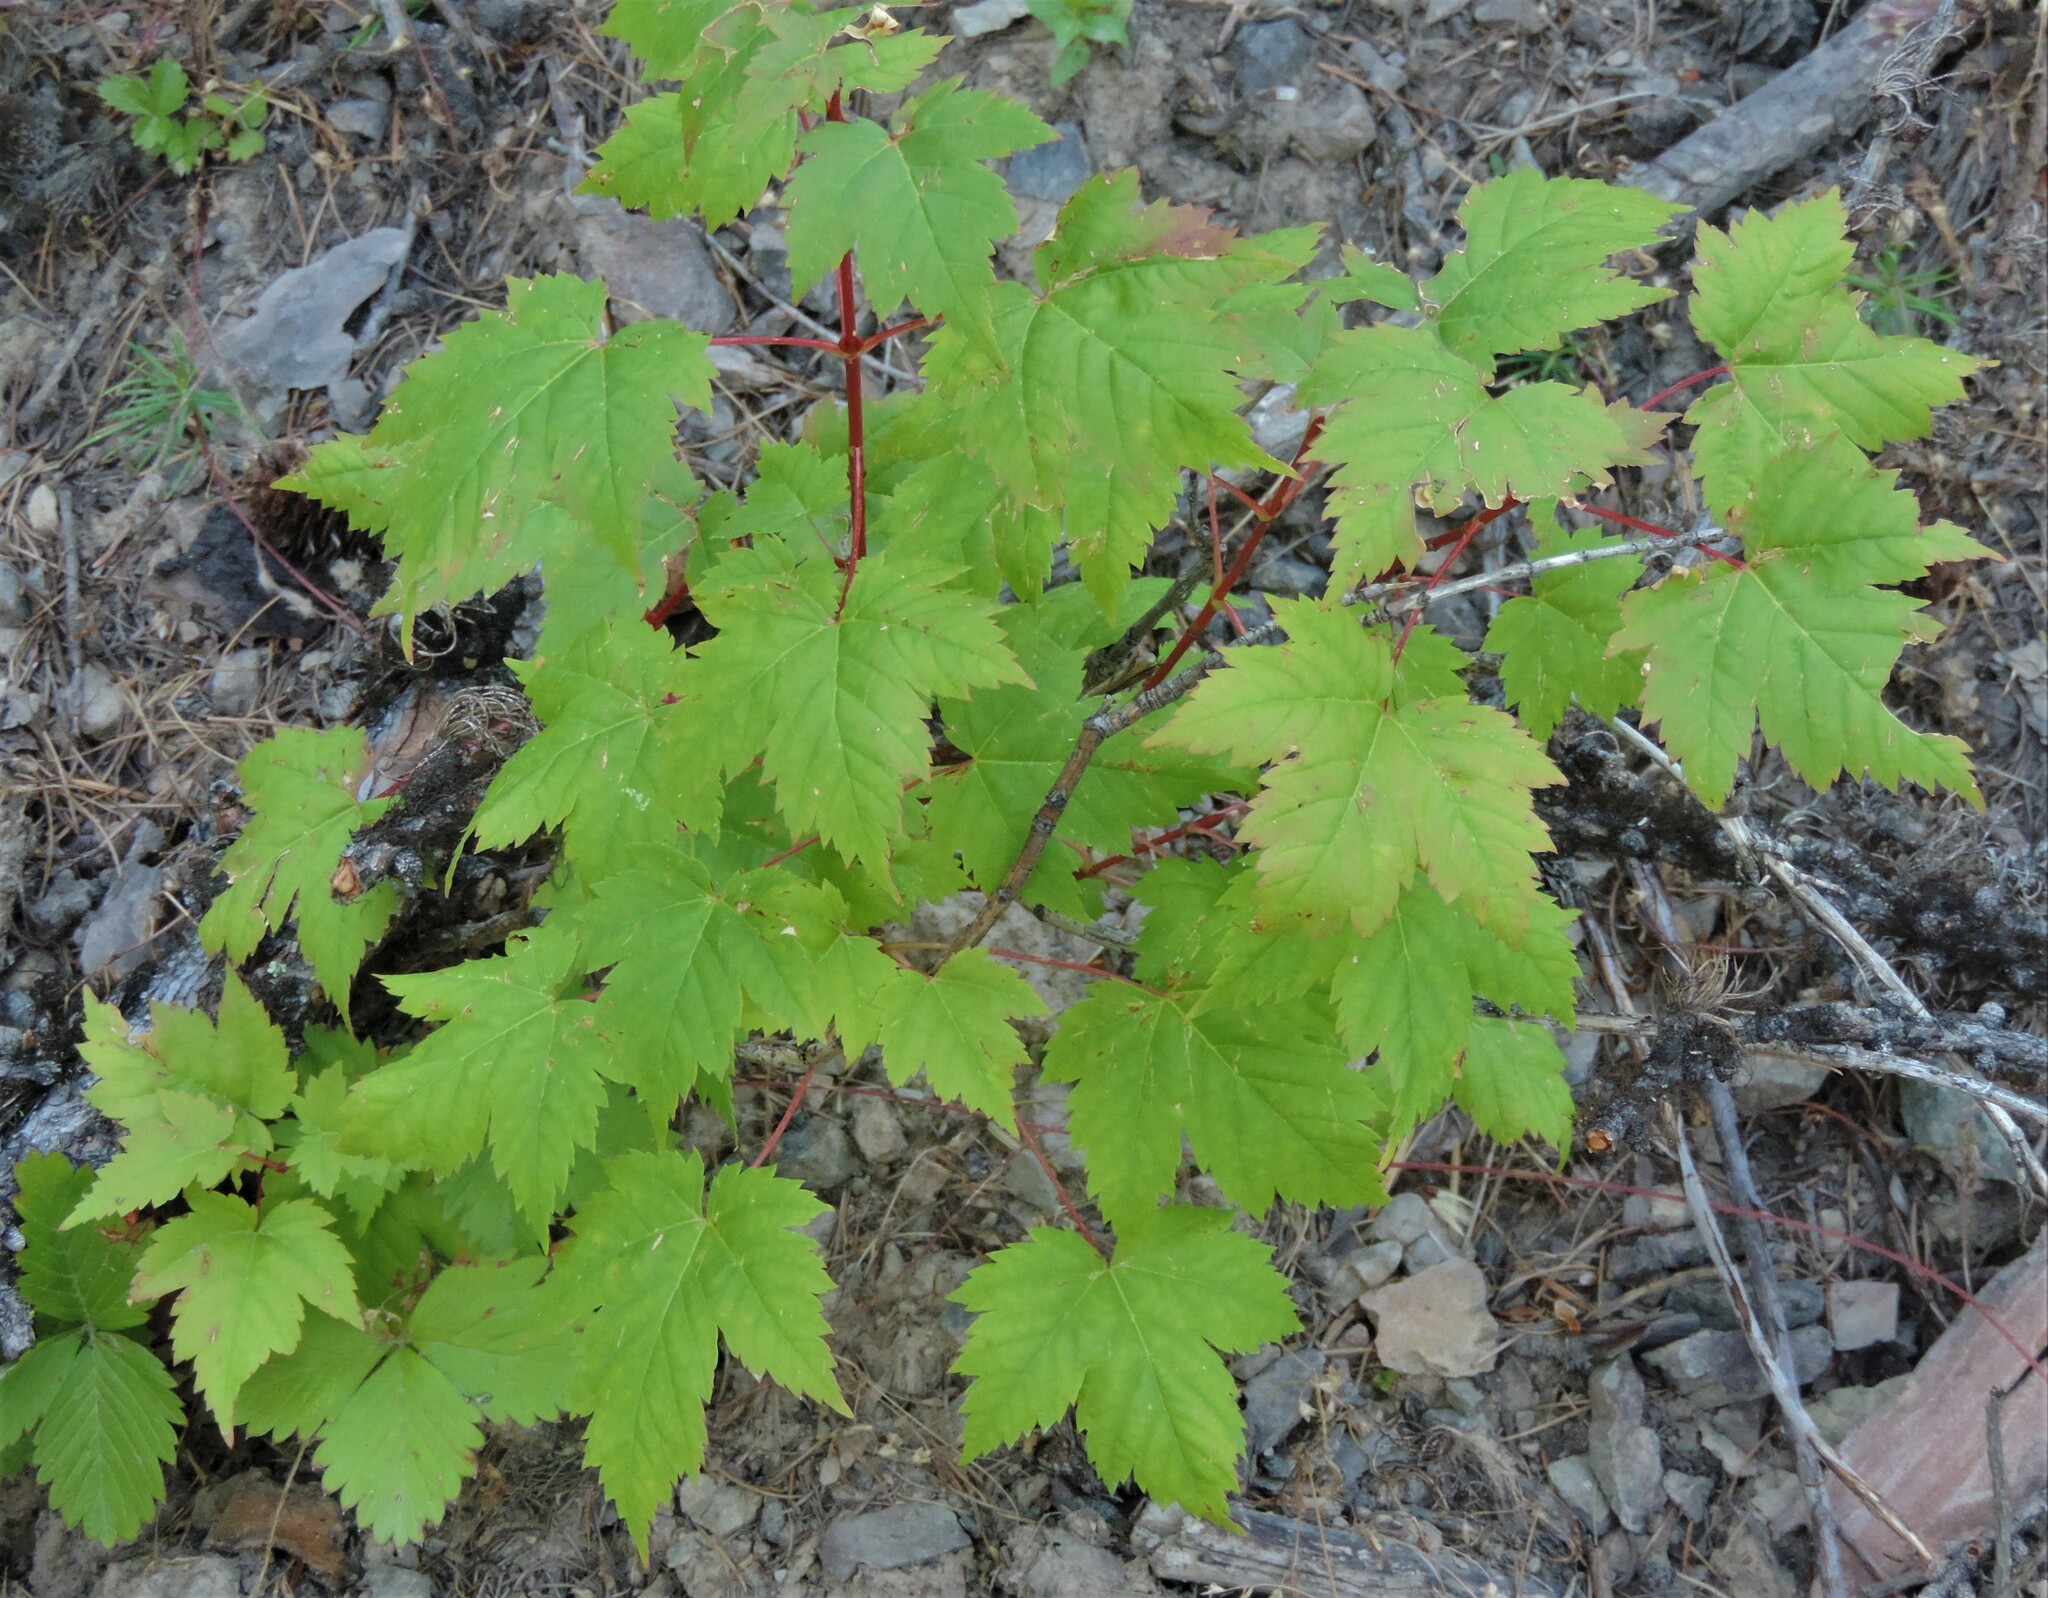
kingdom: Plantae
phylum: Tracheophyta
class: Magnoliopsida
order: Sapindales
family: Sapindaceae
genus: Acer
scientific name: Acer glabrum
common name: Rocky mountain maple
